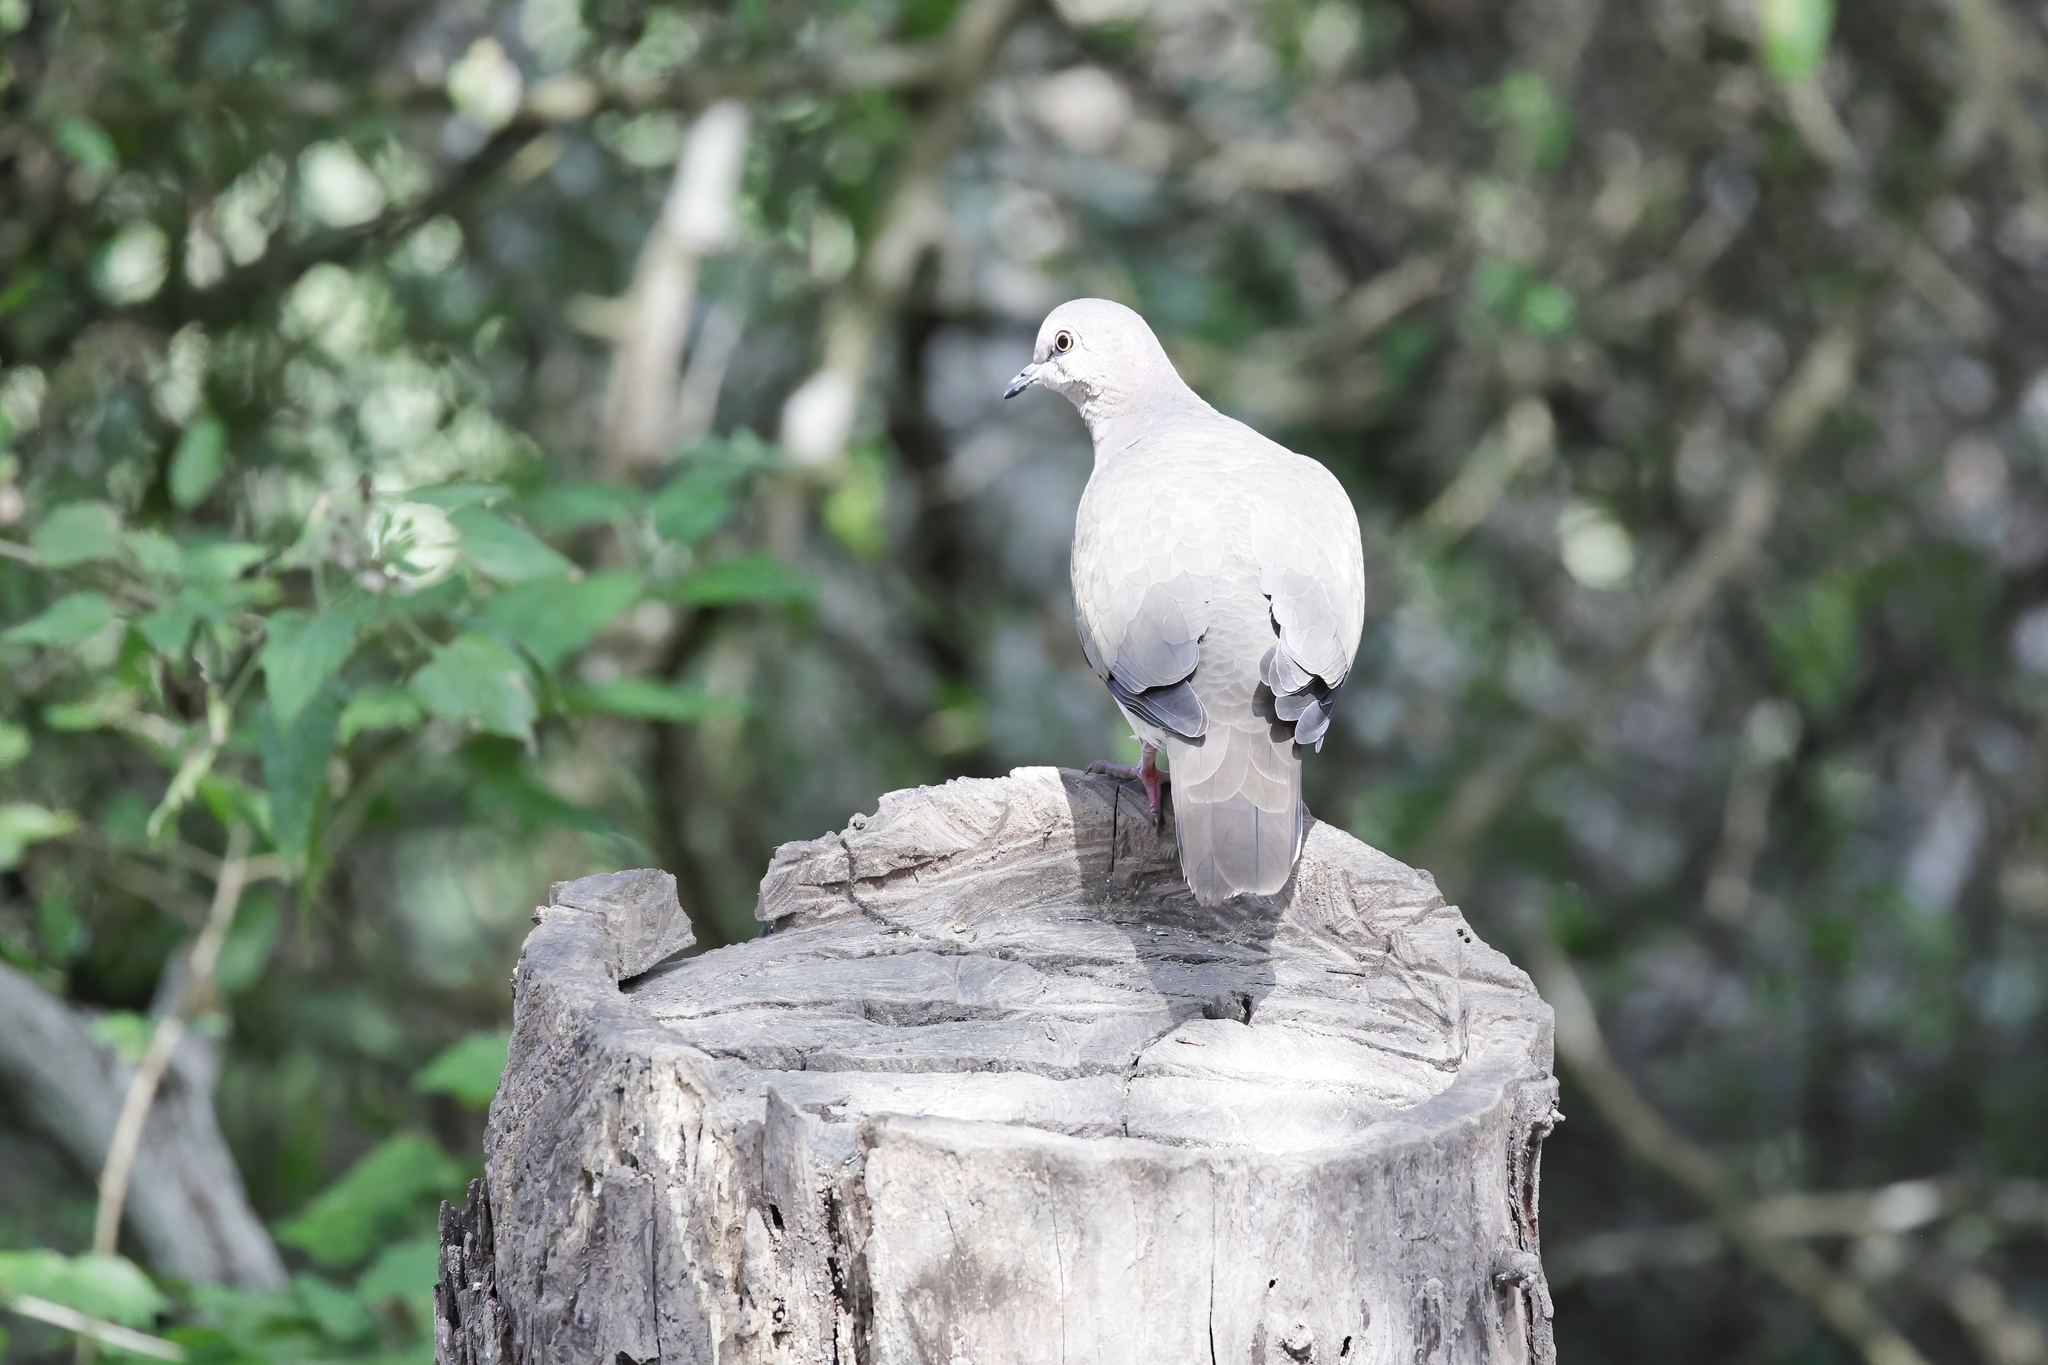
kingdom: Animalia
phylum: Chordata
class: Aves
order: Columbiformes
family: Columbidae
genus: Leptotila
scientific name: Leptotila verreauxi
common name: White-tipped dove
